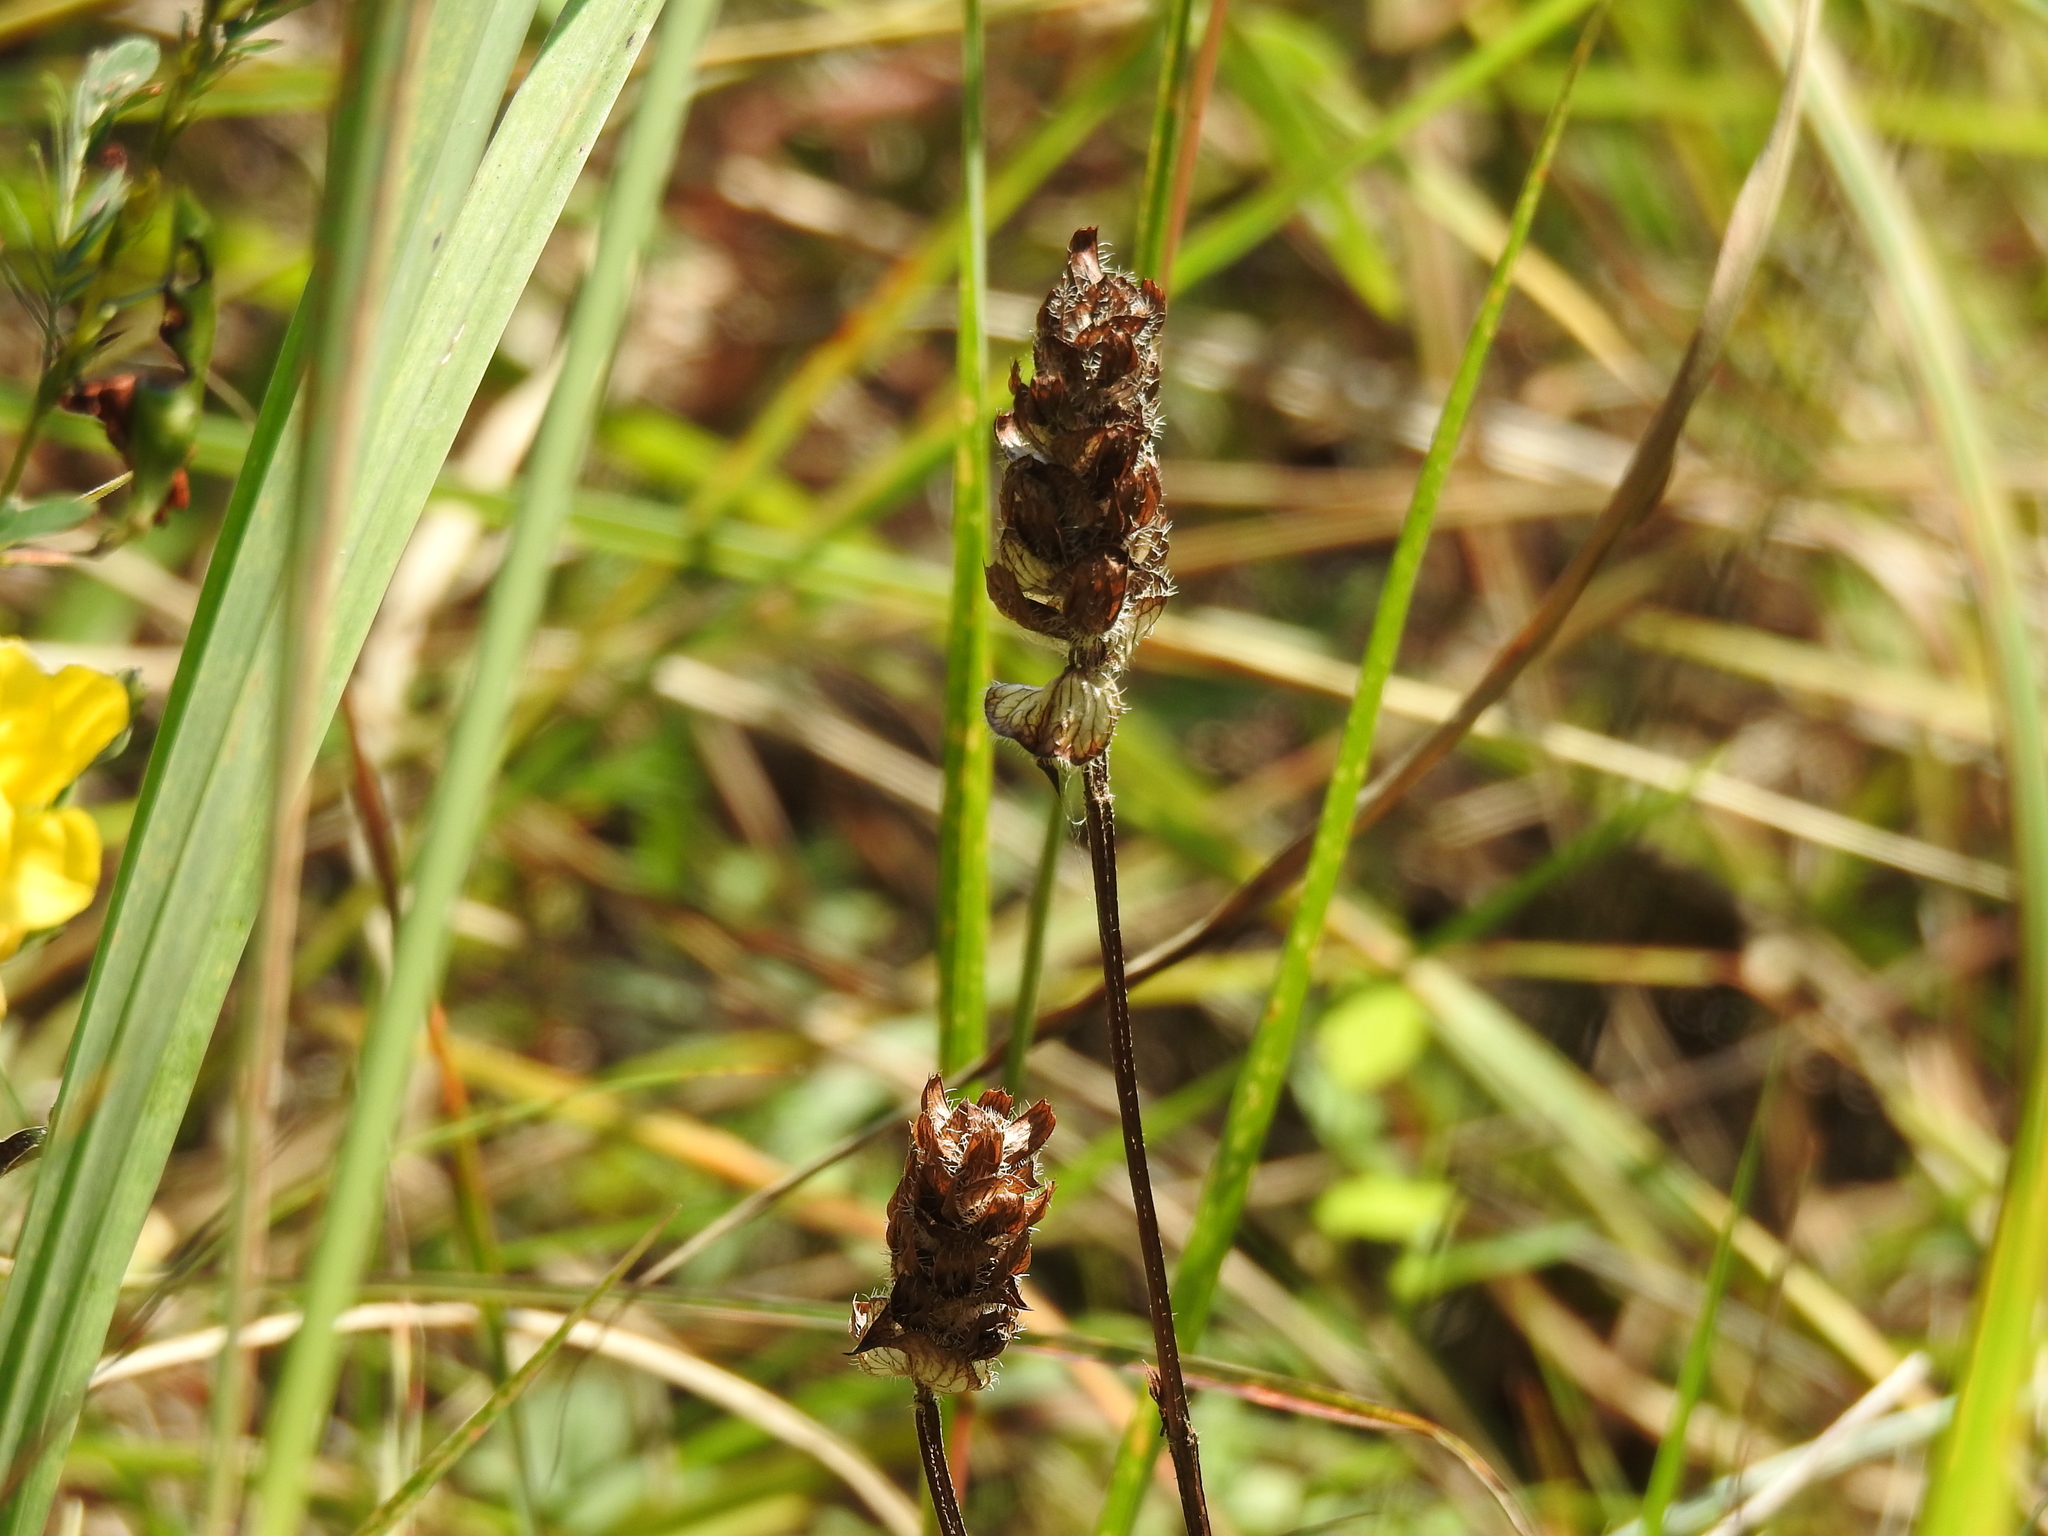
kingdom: Plantae
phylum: Tracheophyta
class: Magnoliopsida
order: Lamiales
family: Lamiaceae
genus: Prunella
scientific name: Prunella vulgaris
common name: Heal-all
